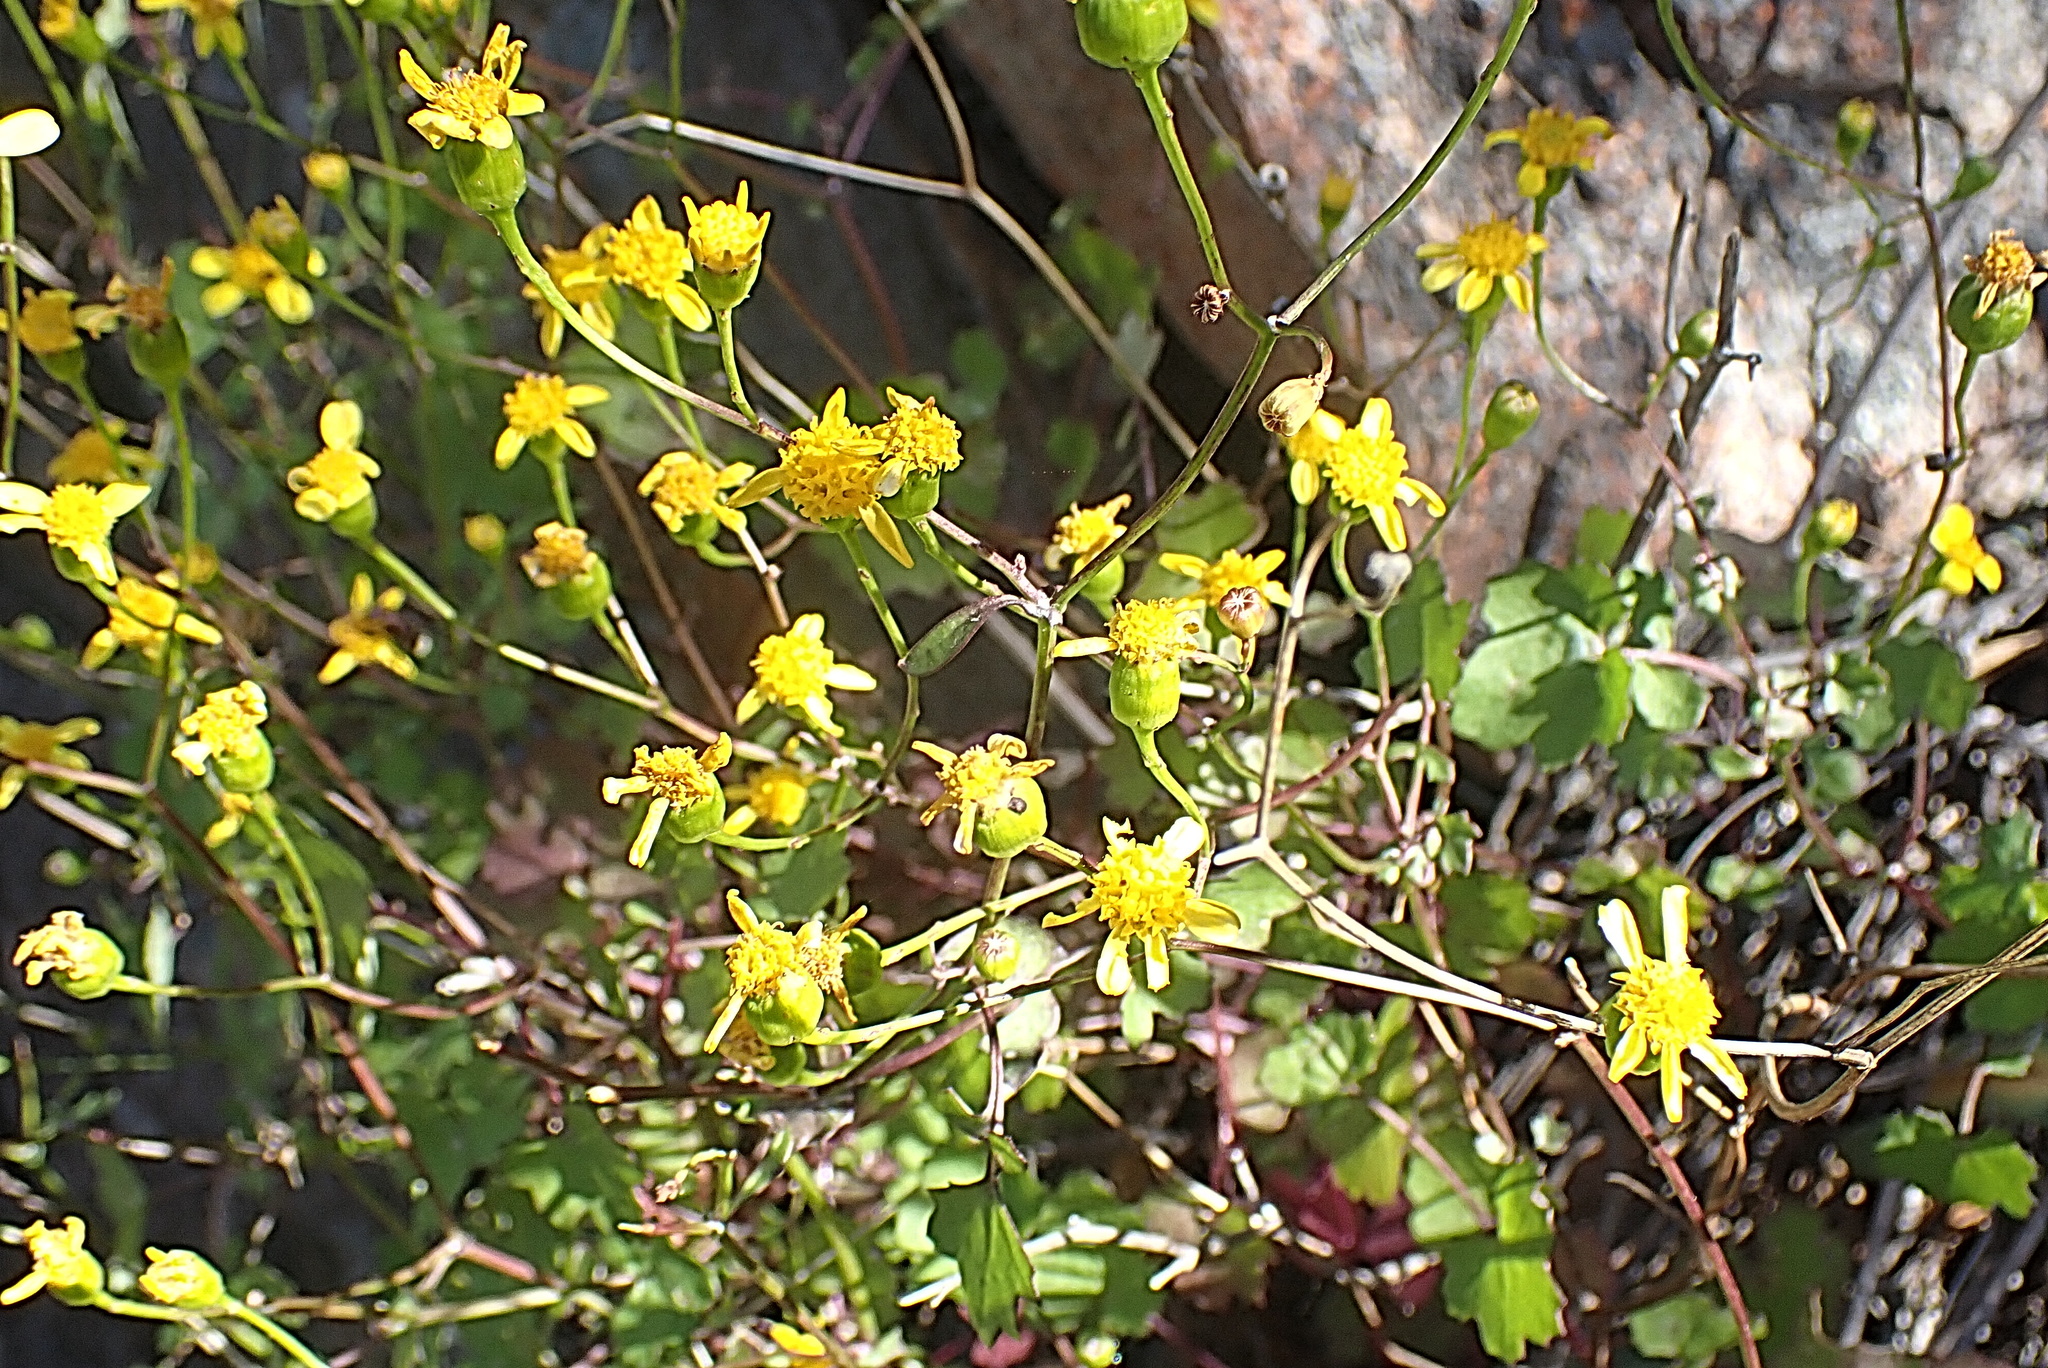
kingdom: Plantae
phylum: Tracheophyta
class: Magnoliopsida
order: Asterales
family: Asteraceae
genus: Cineraria
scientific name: Cineraria lobata
